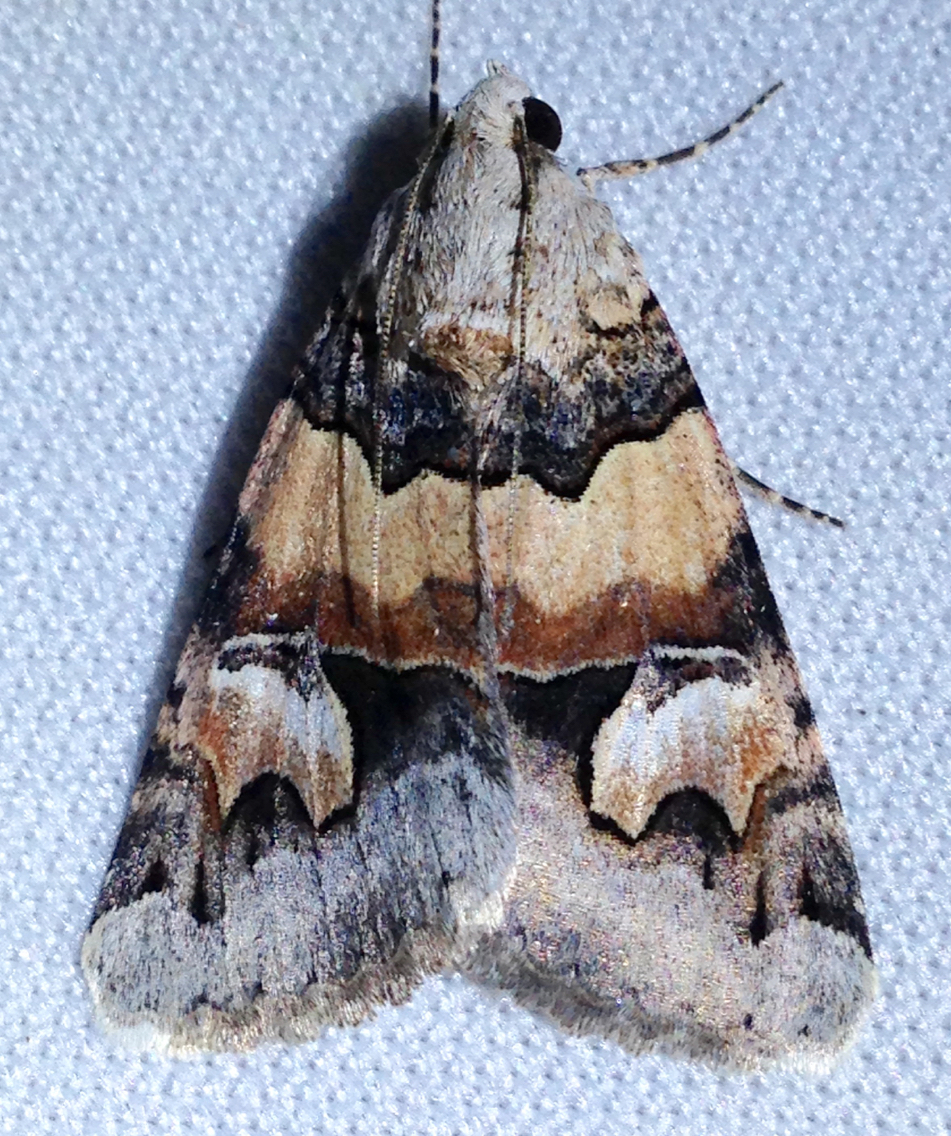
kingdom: Animalia
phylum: Arthropoda
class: Insecta
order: Lepidoptera
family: Erebidae
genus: Drasteria
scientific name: Drasteria fumosa
